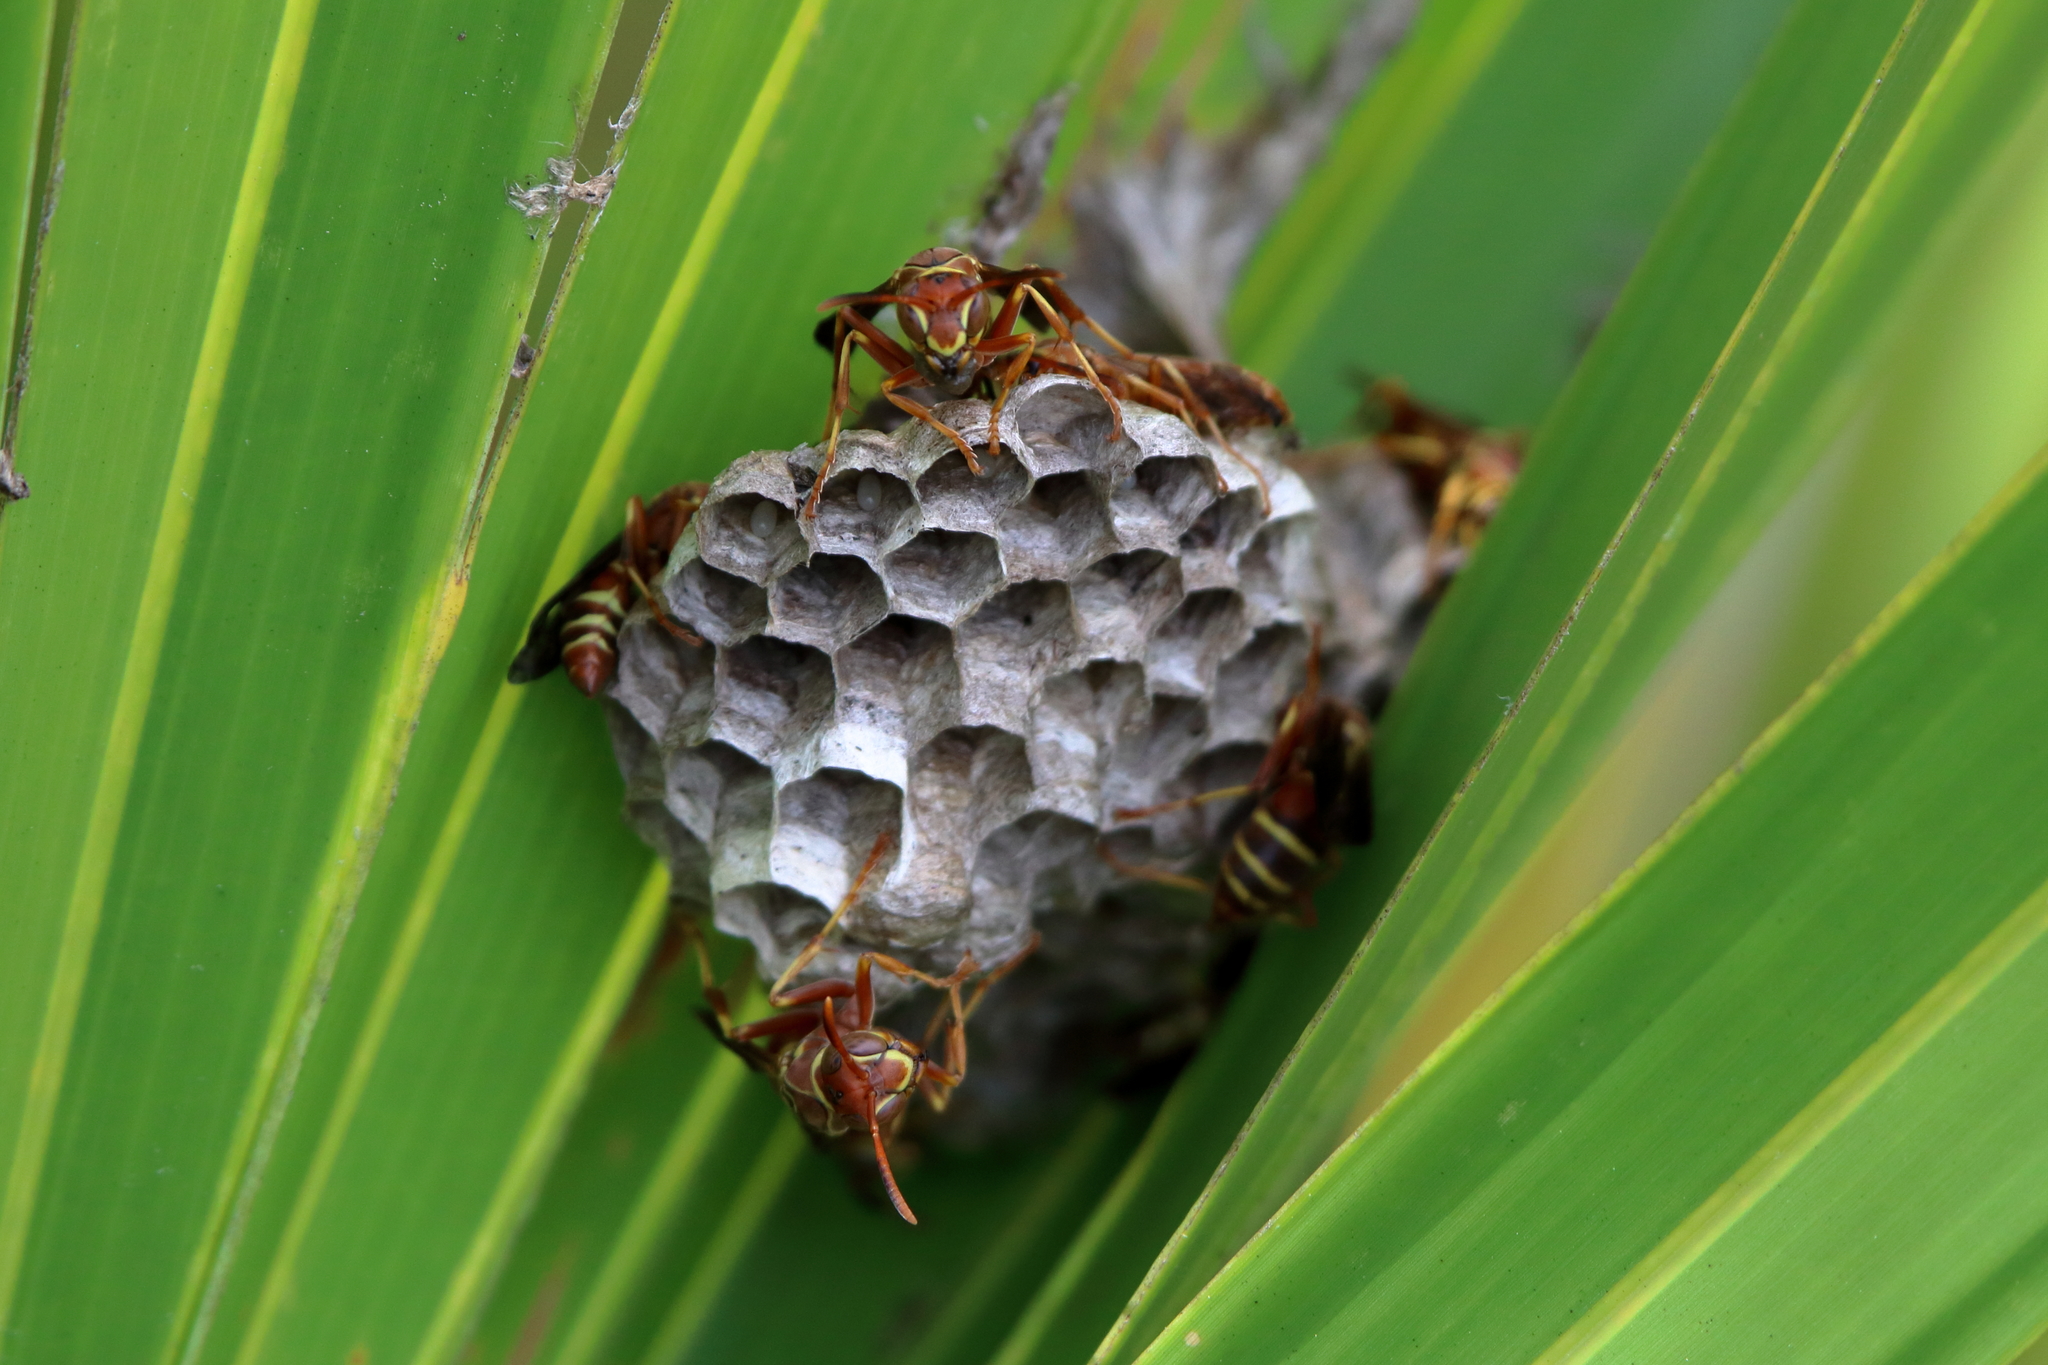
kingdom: Animalia
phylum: Arthropoda
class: Insecta
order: Hymenoptera
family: Eumenidae
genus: Polistes
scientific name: Polistes dorsalis
